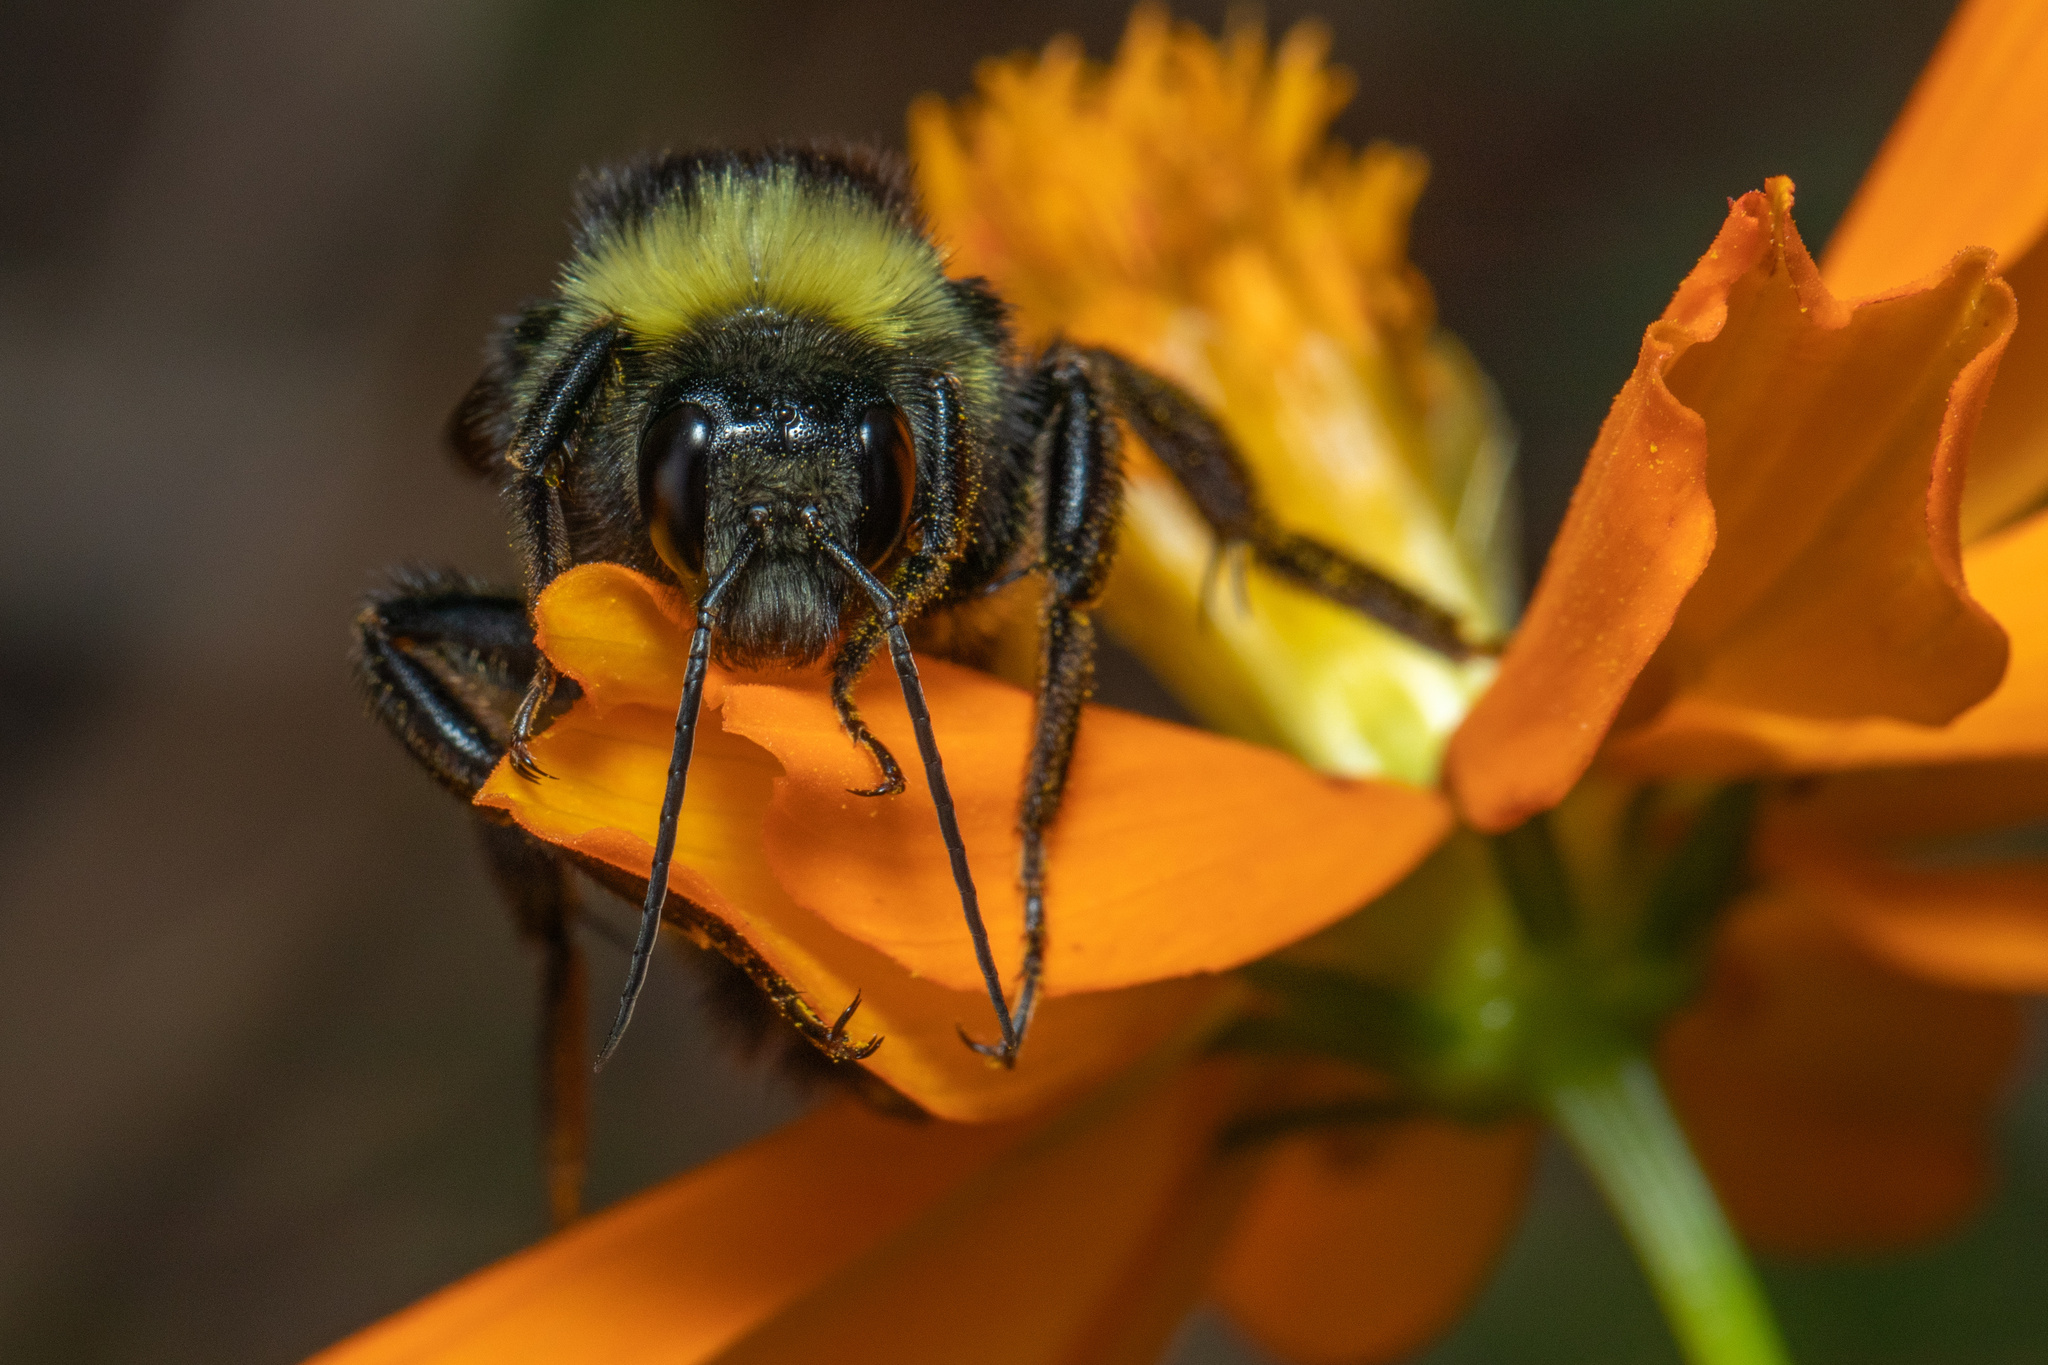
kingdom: Animalia
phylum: Arthropoda
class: Insecta
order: Hymenoptera
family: Apidae
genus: Bombus
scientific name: Bombus pensylvanicus
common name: Bumble bee
